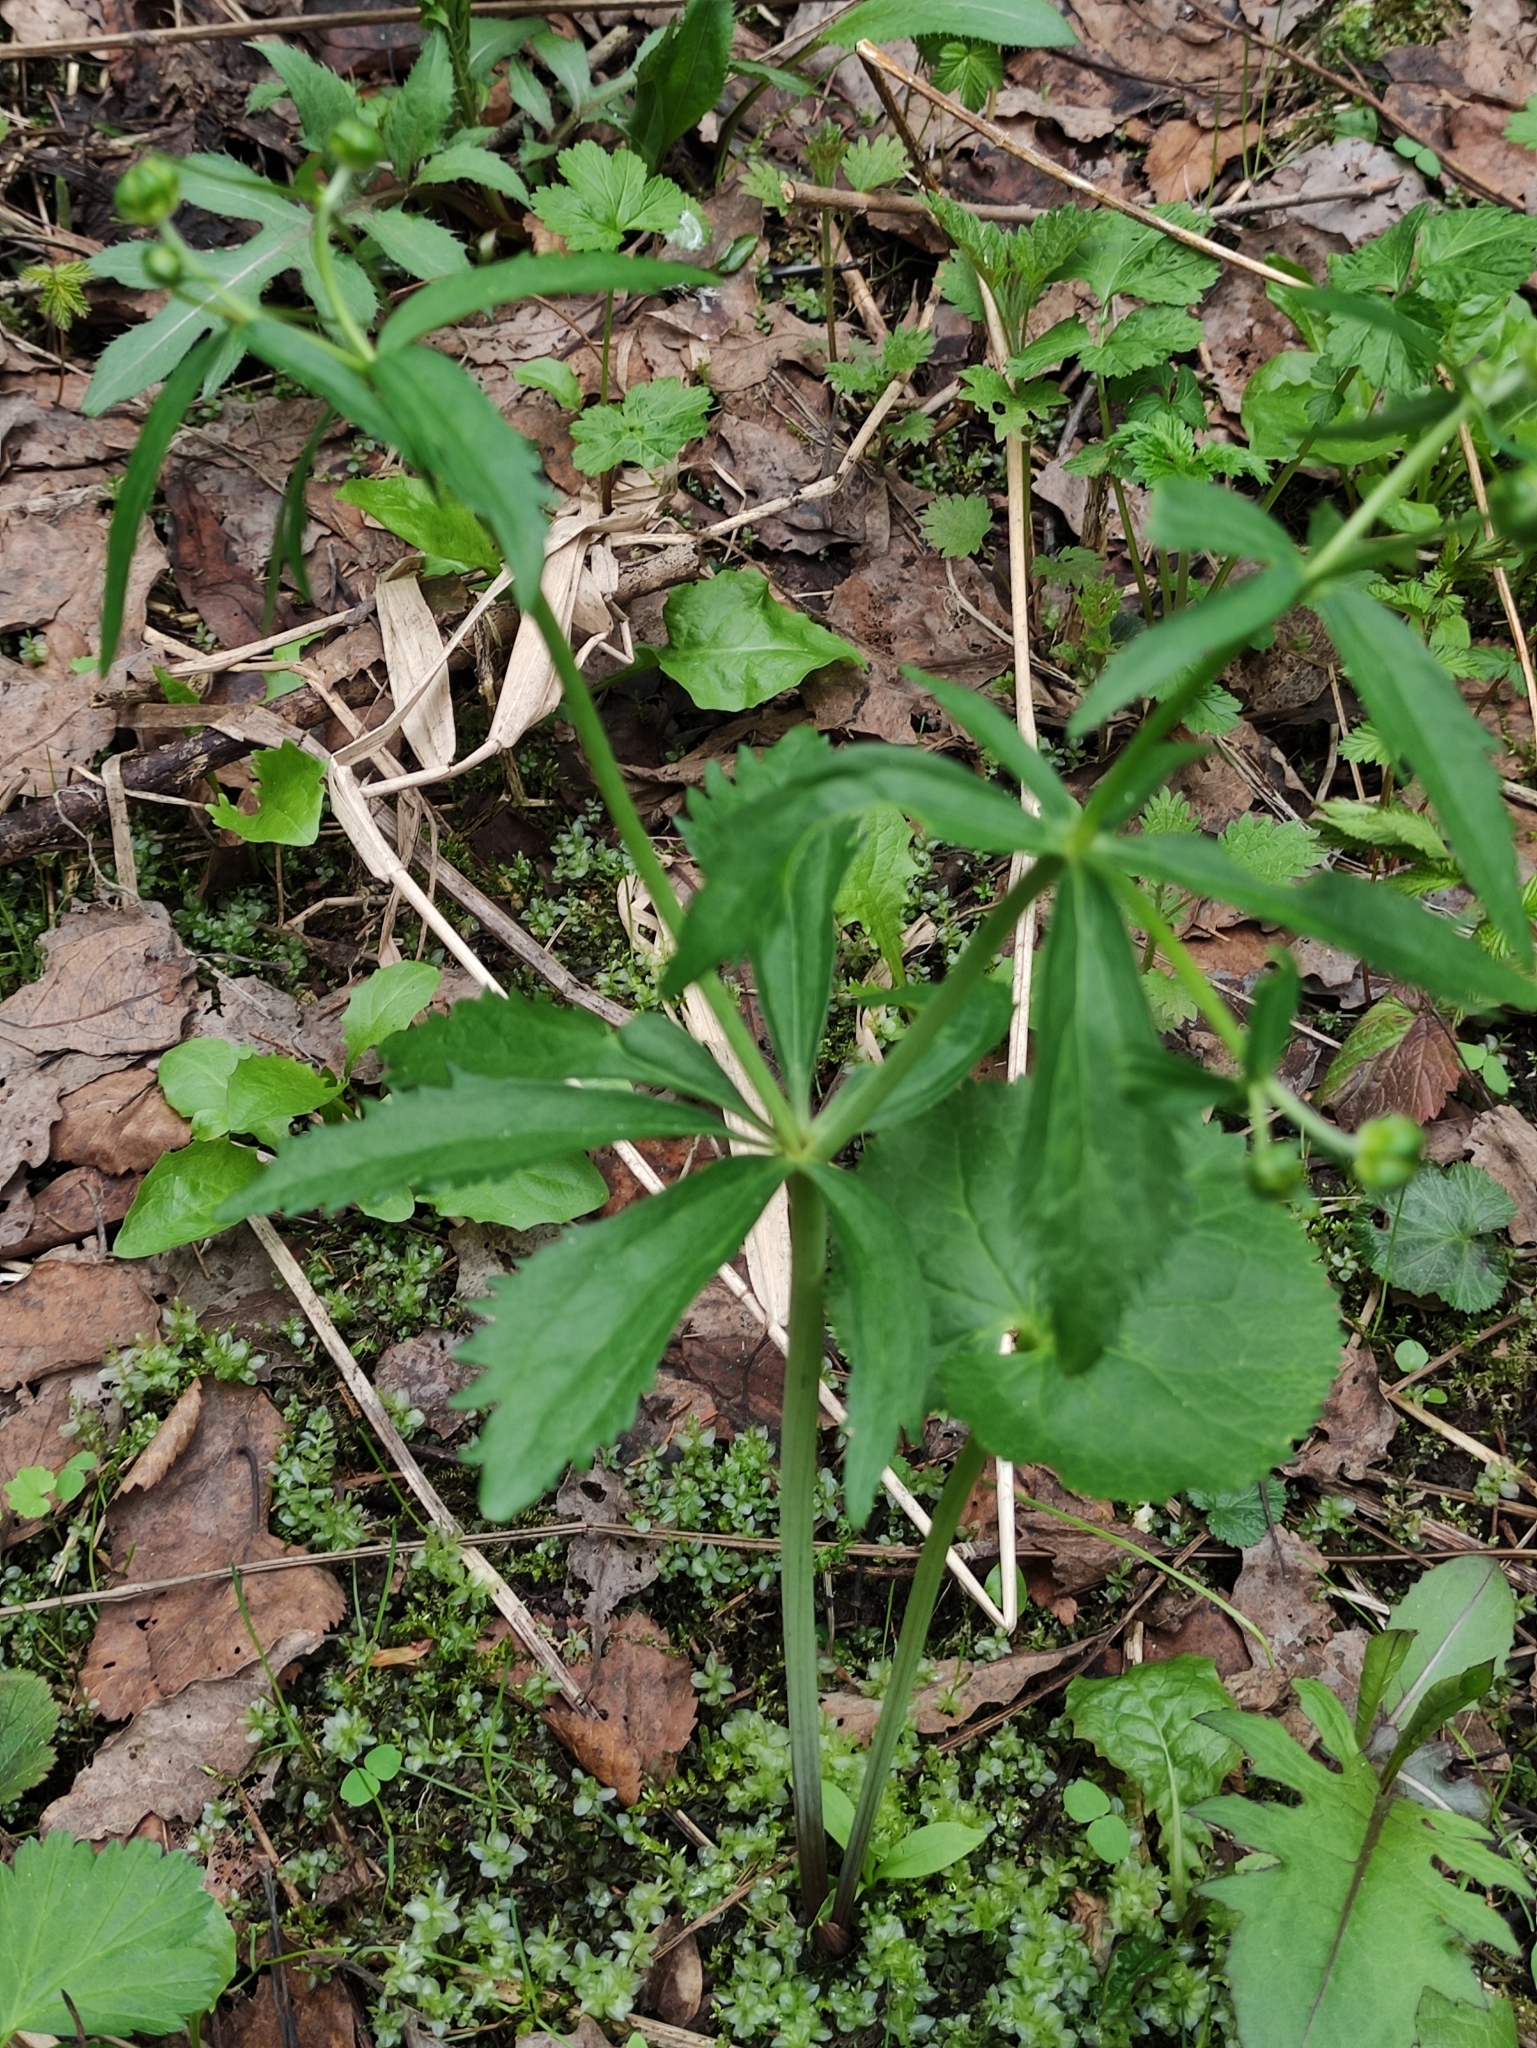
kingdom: Plantae
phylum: Tracheophyta
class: Magnoliopsida
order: Ranunculales
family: Ranunculaceae
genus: Ranunculus
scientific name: Ranunculus cassubicus
